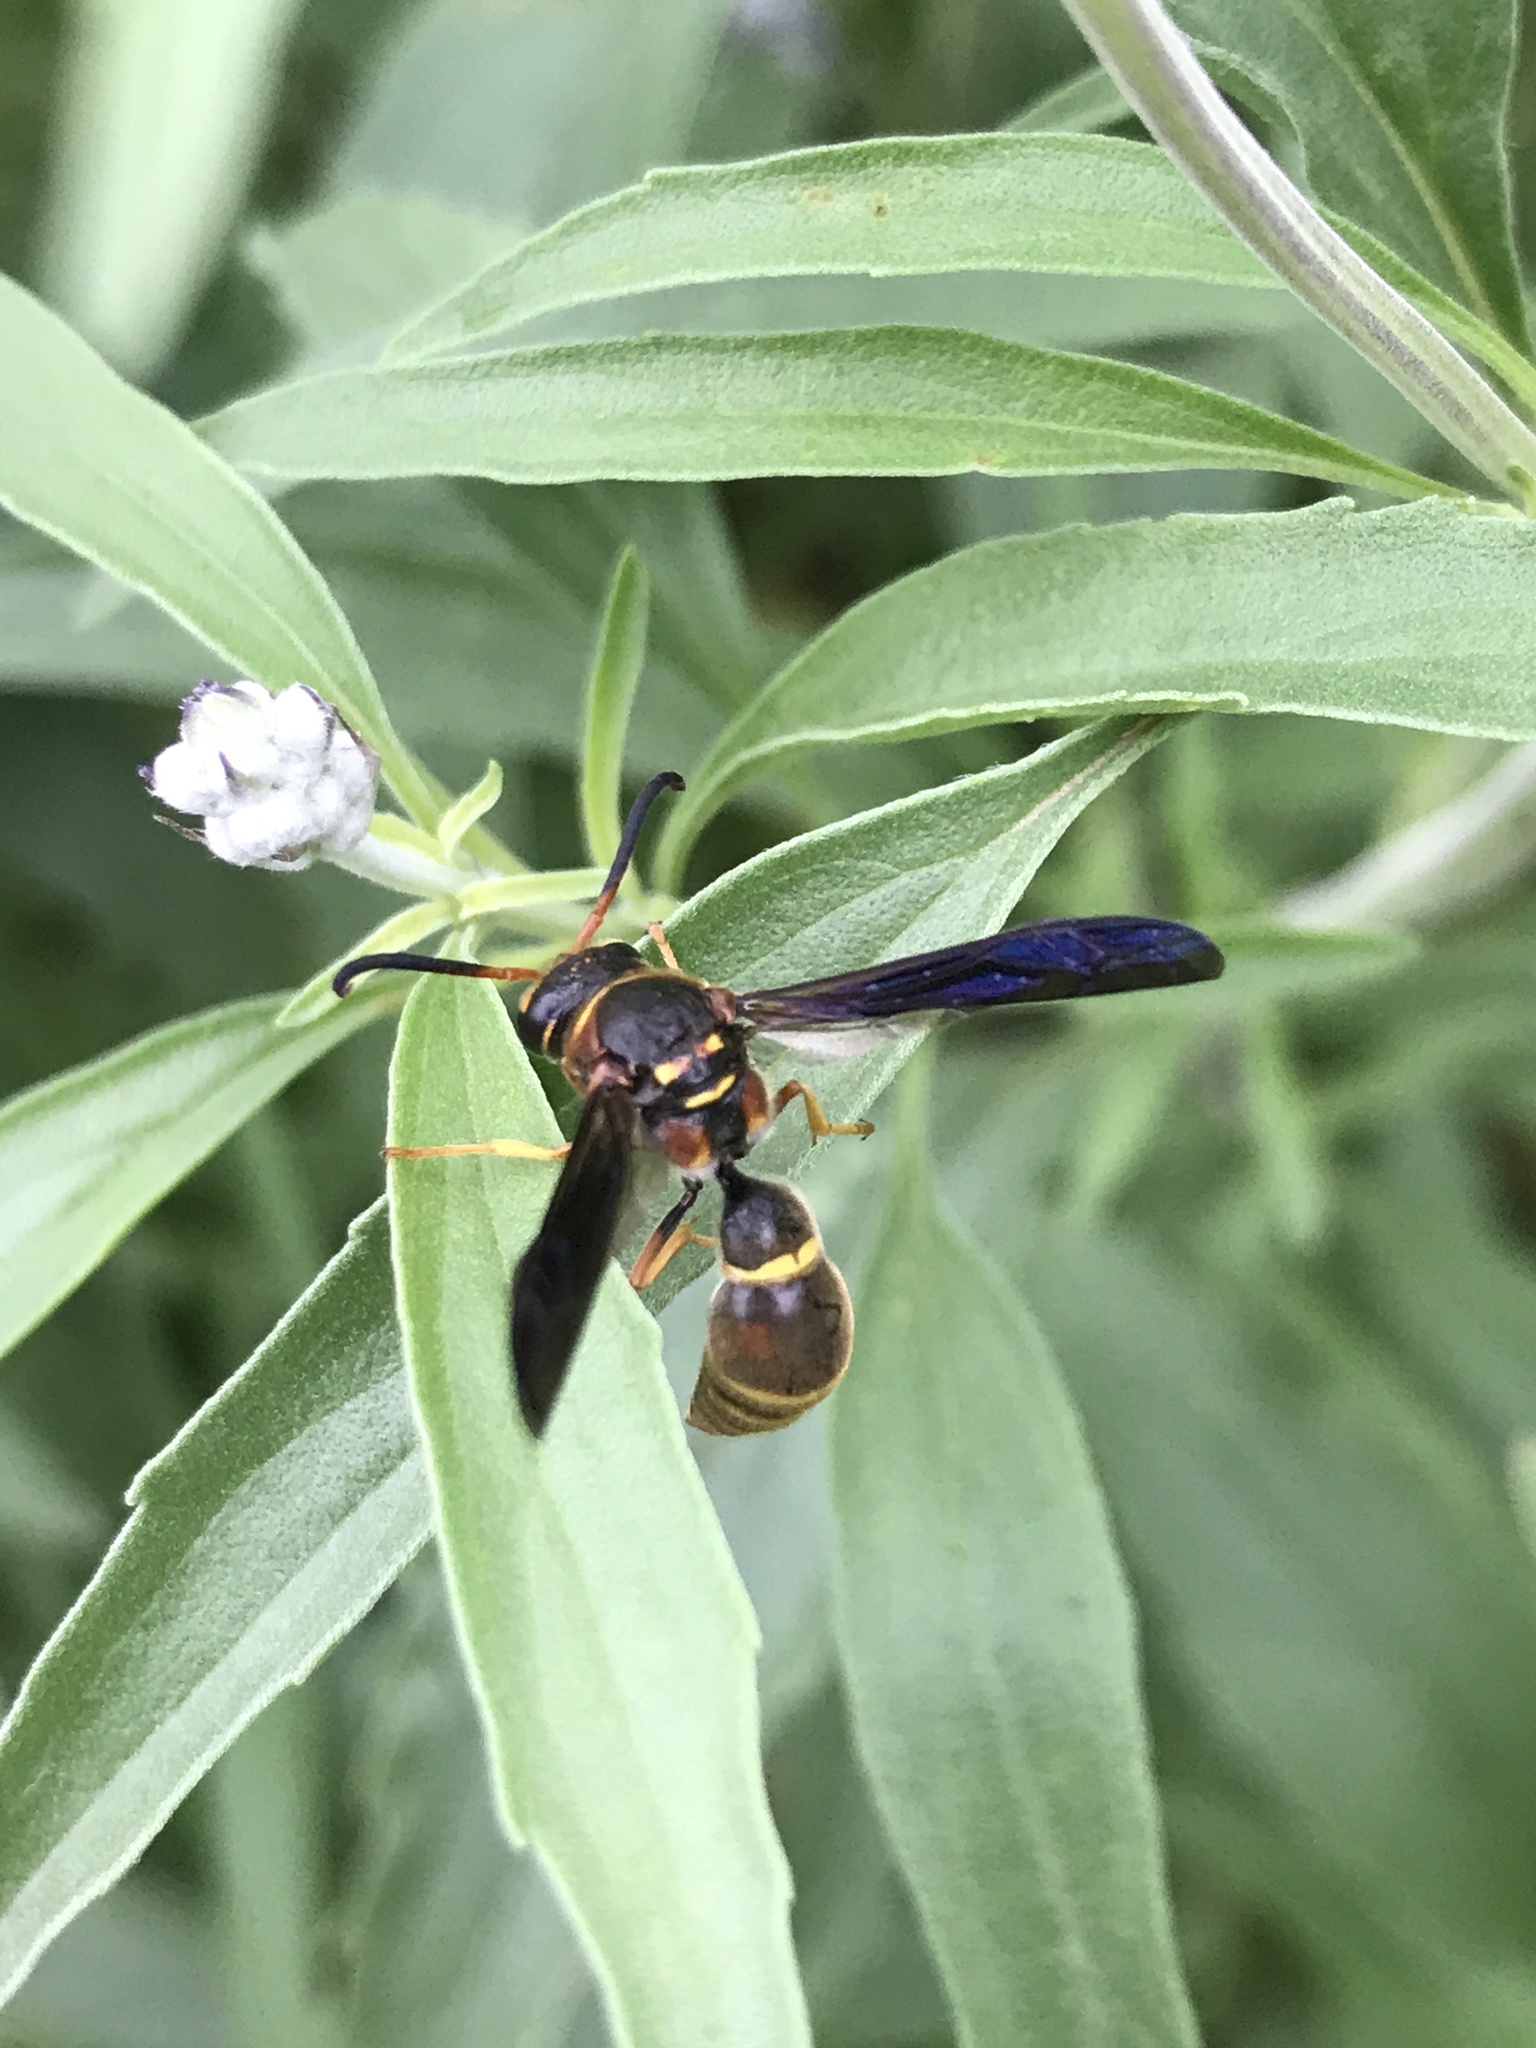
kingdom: Animalia
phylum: Arthropoda
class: Insecta
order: Hymenoptera
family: Eumenidae
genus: Parazumia
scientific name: Parazumia tolteca
